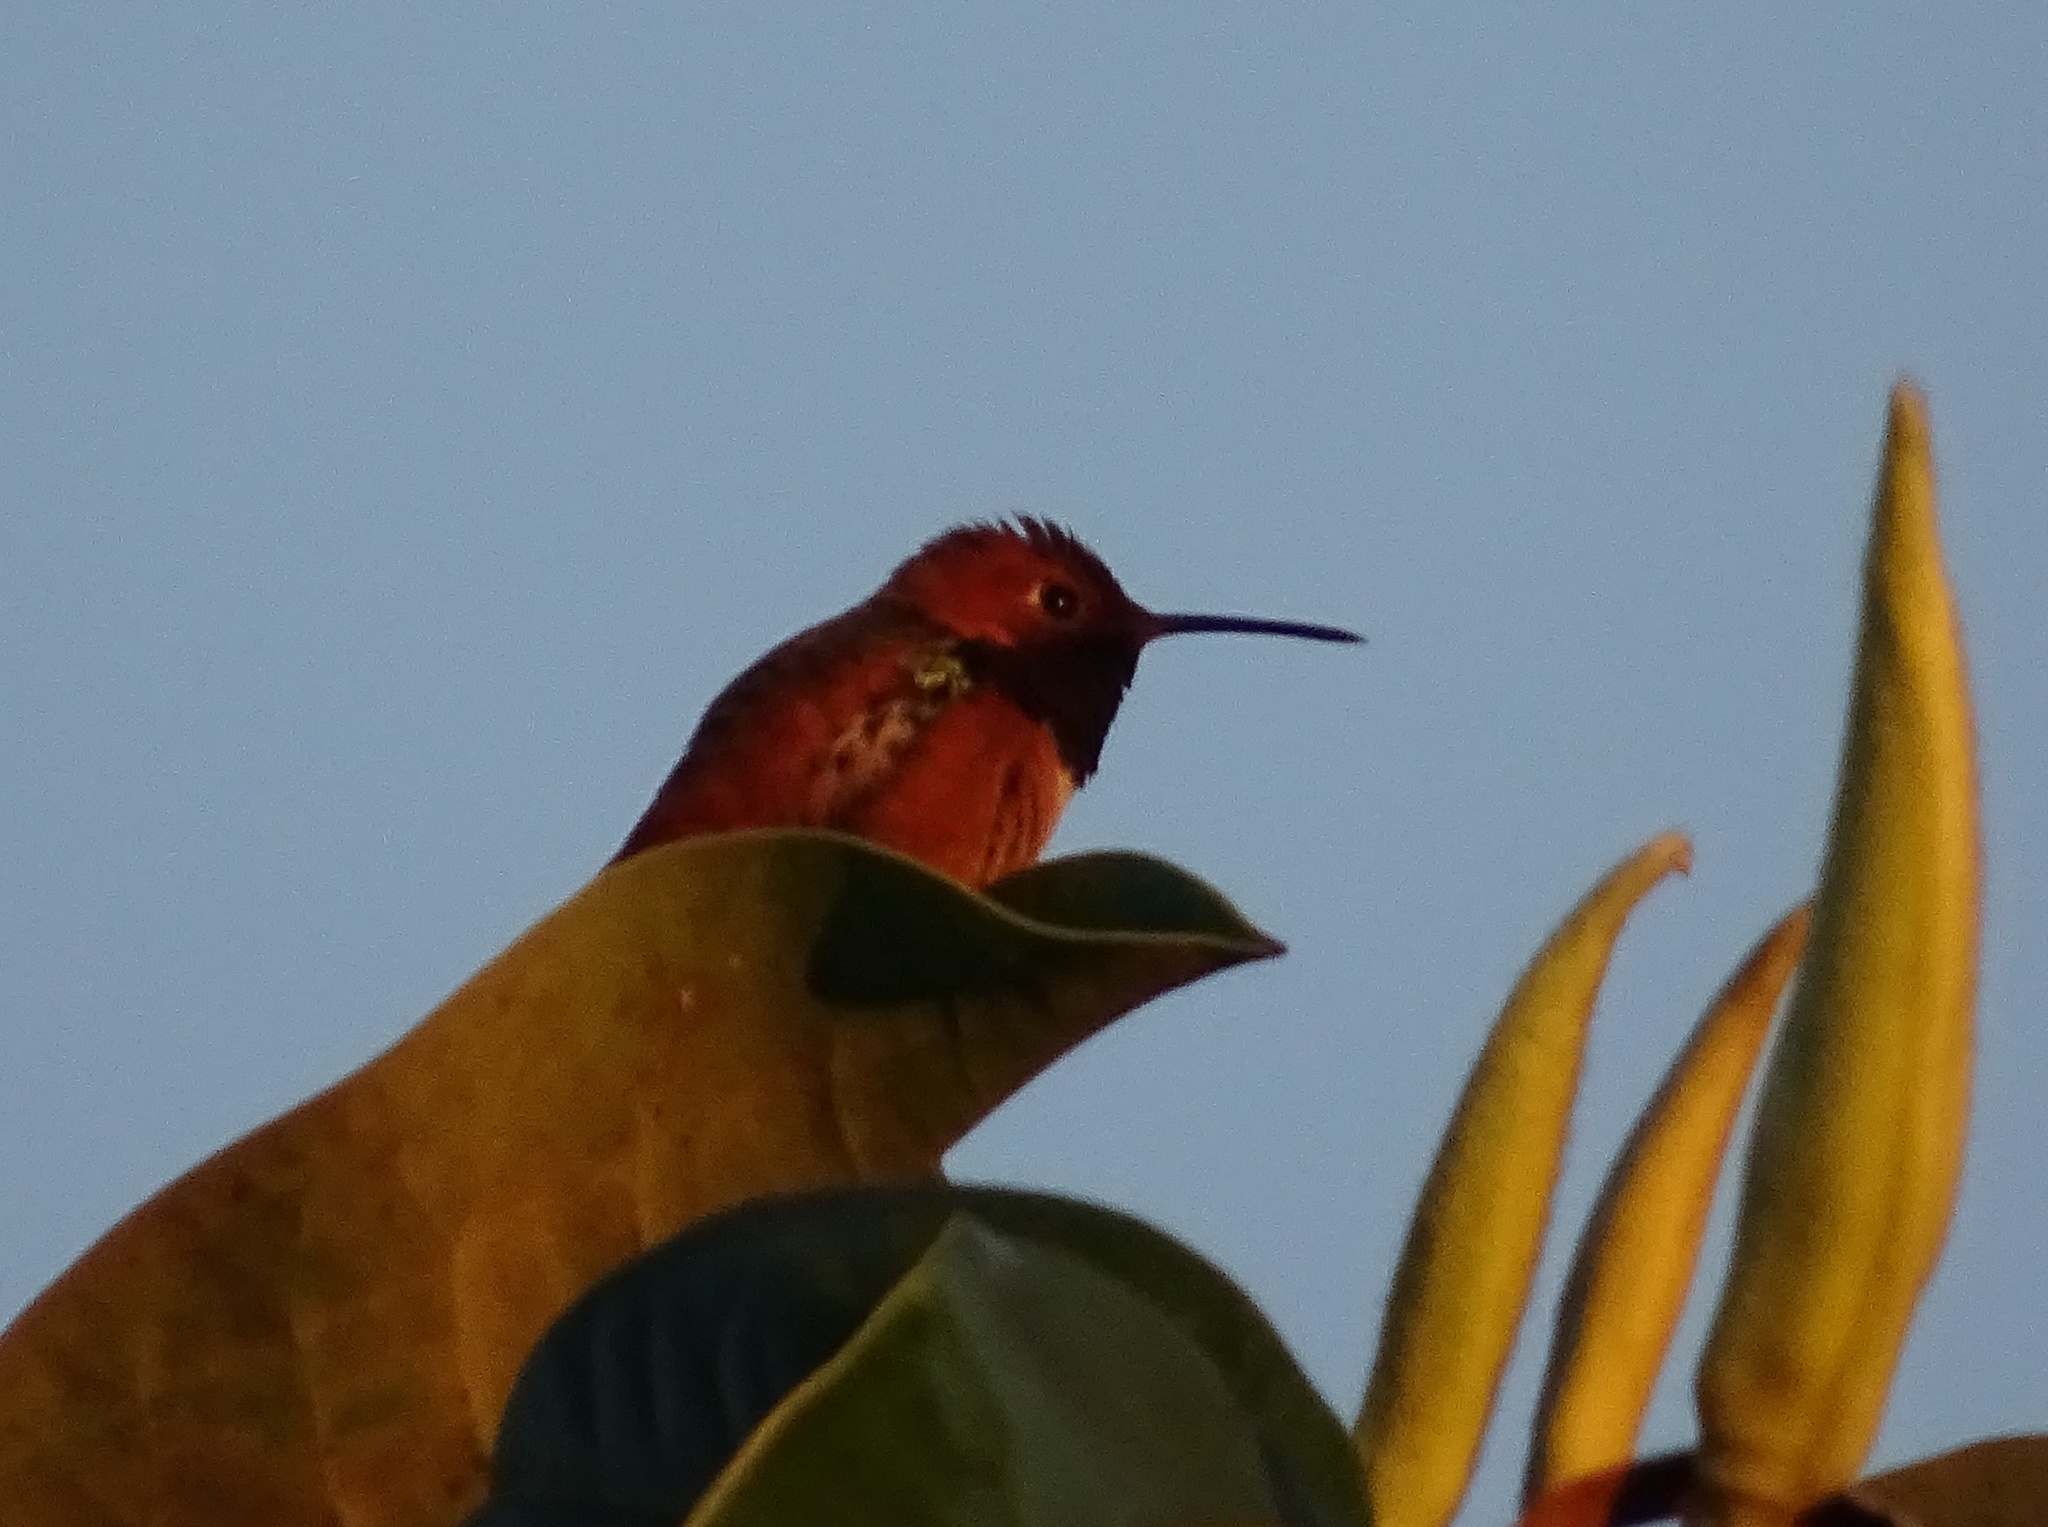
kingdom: Animalia
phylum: Chordata
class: Aves
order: Apodiformes
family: Trochilidae
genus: Selasphorus
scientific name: Selasphorus sasin
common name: Allen's hummingbird
